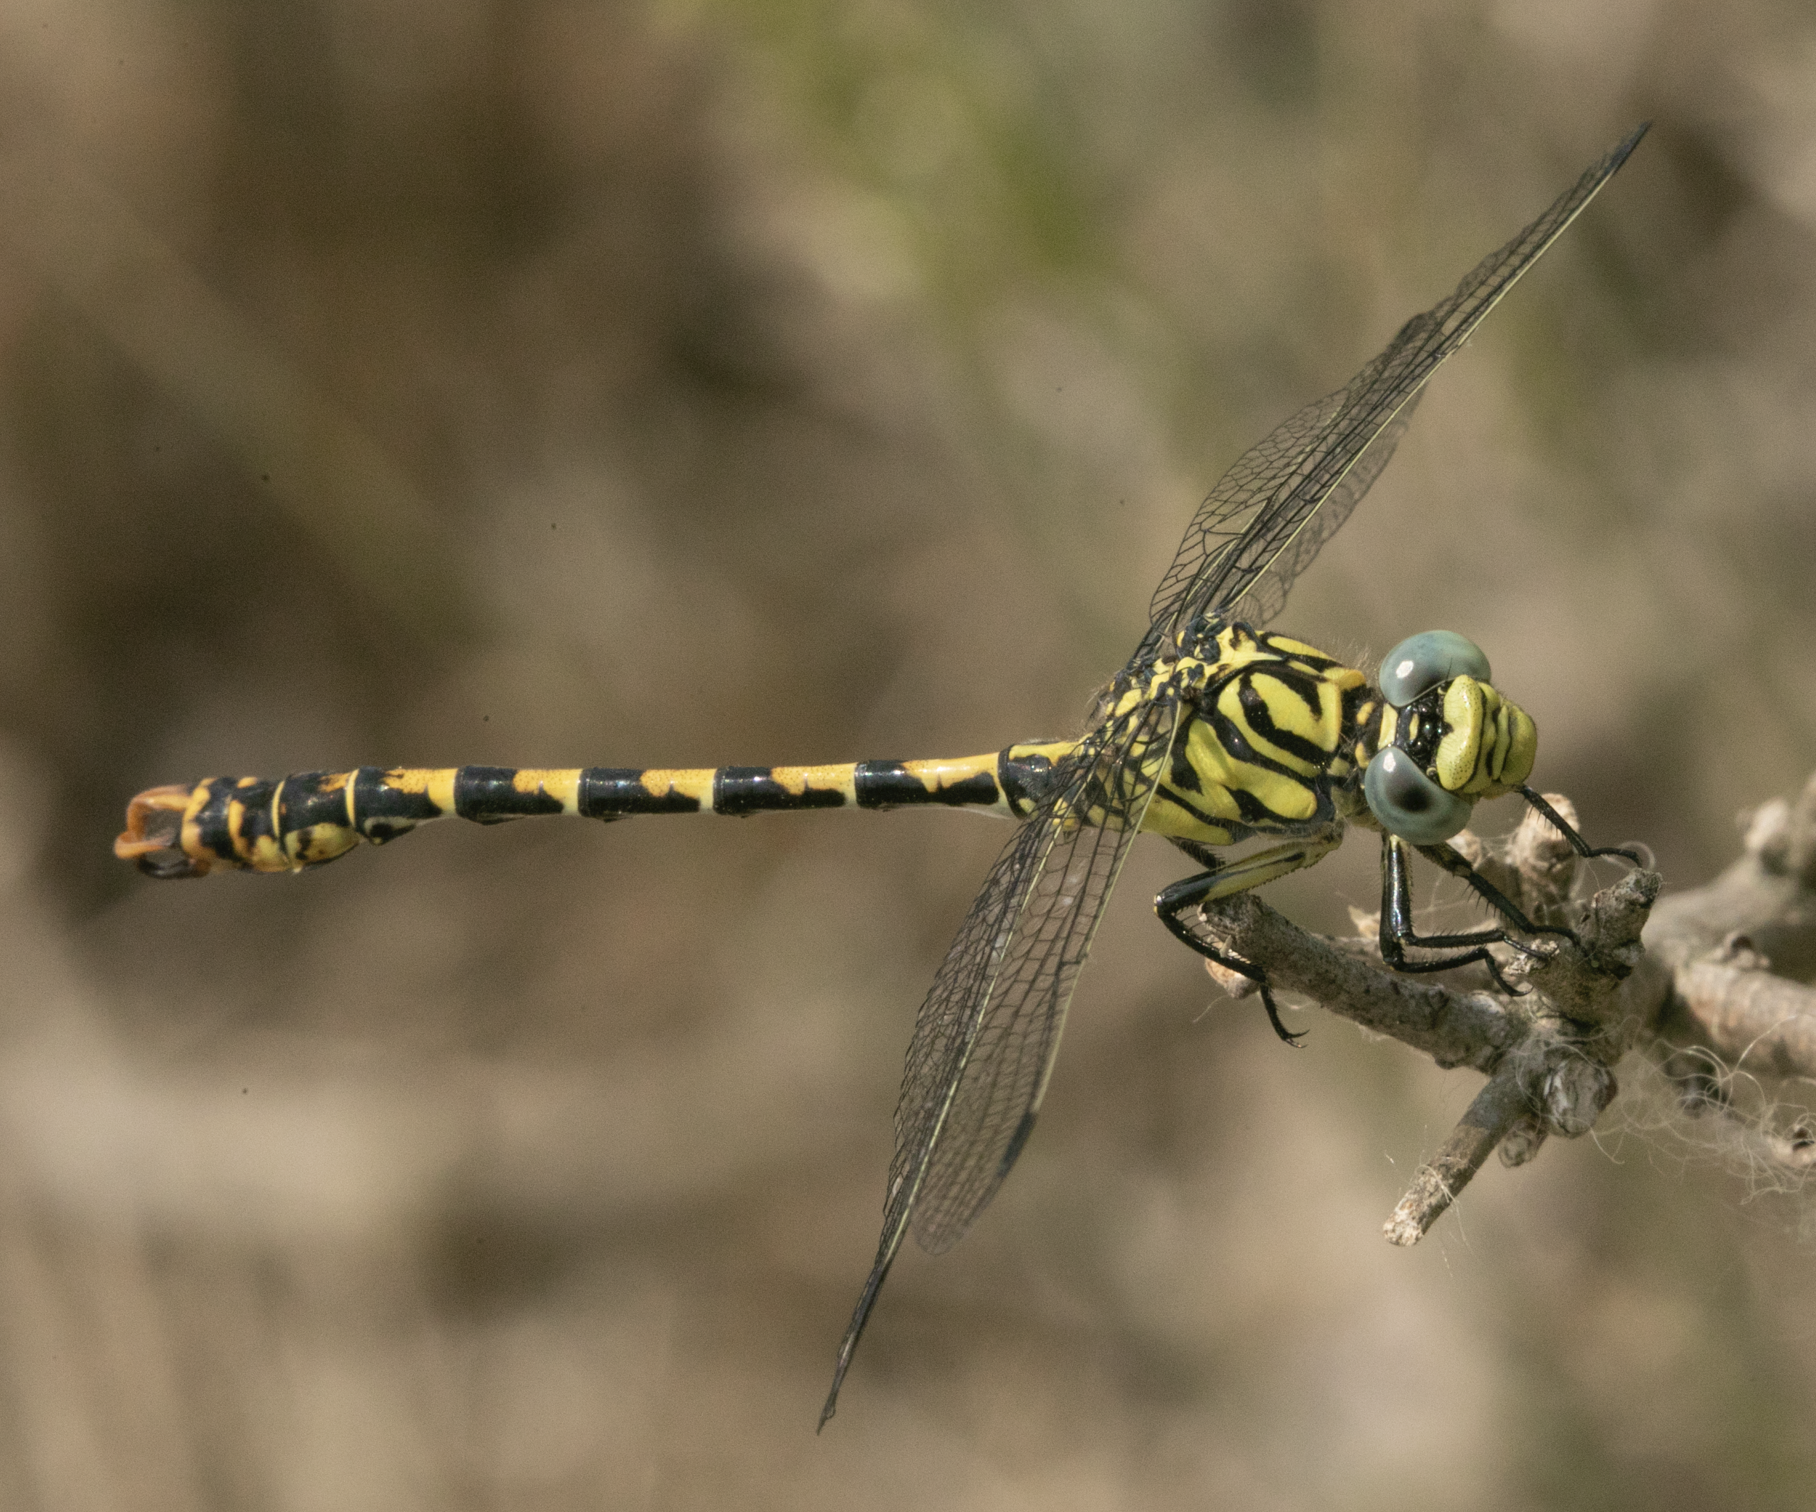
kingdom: Animalia
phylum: Arthropoda
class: Insecta
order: Odonata
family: Gomphidae
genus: Onychogomphus
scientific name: Onychogomphus forcipatus
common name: Small pincertail
